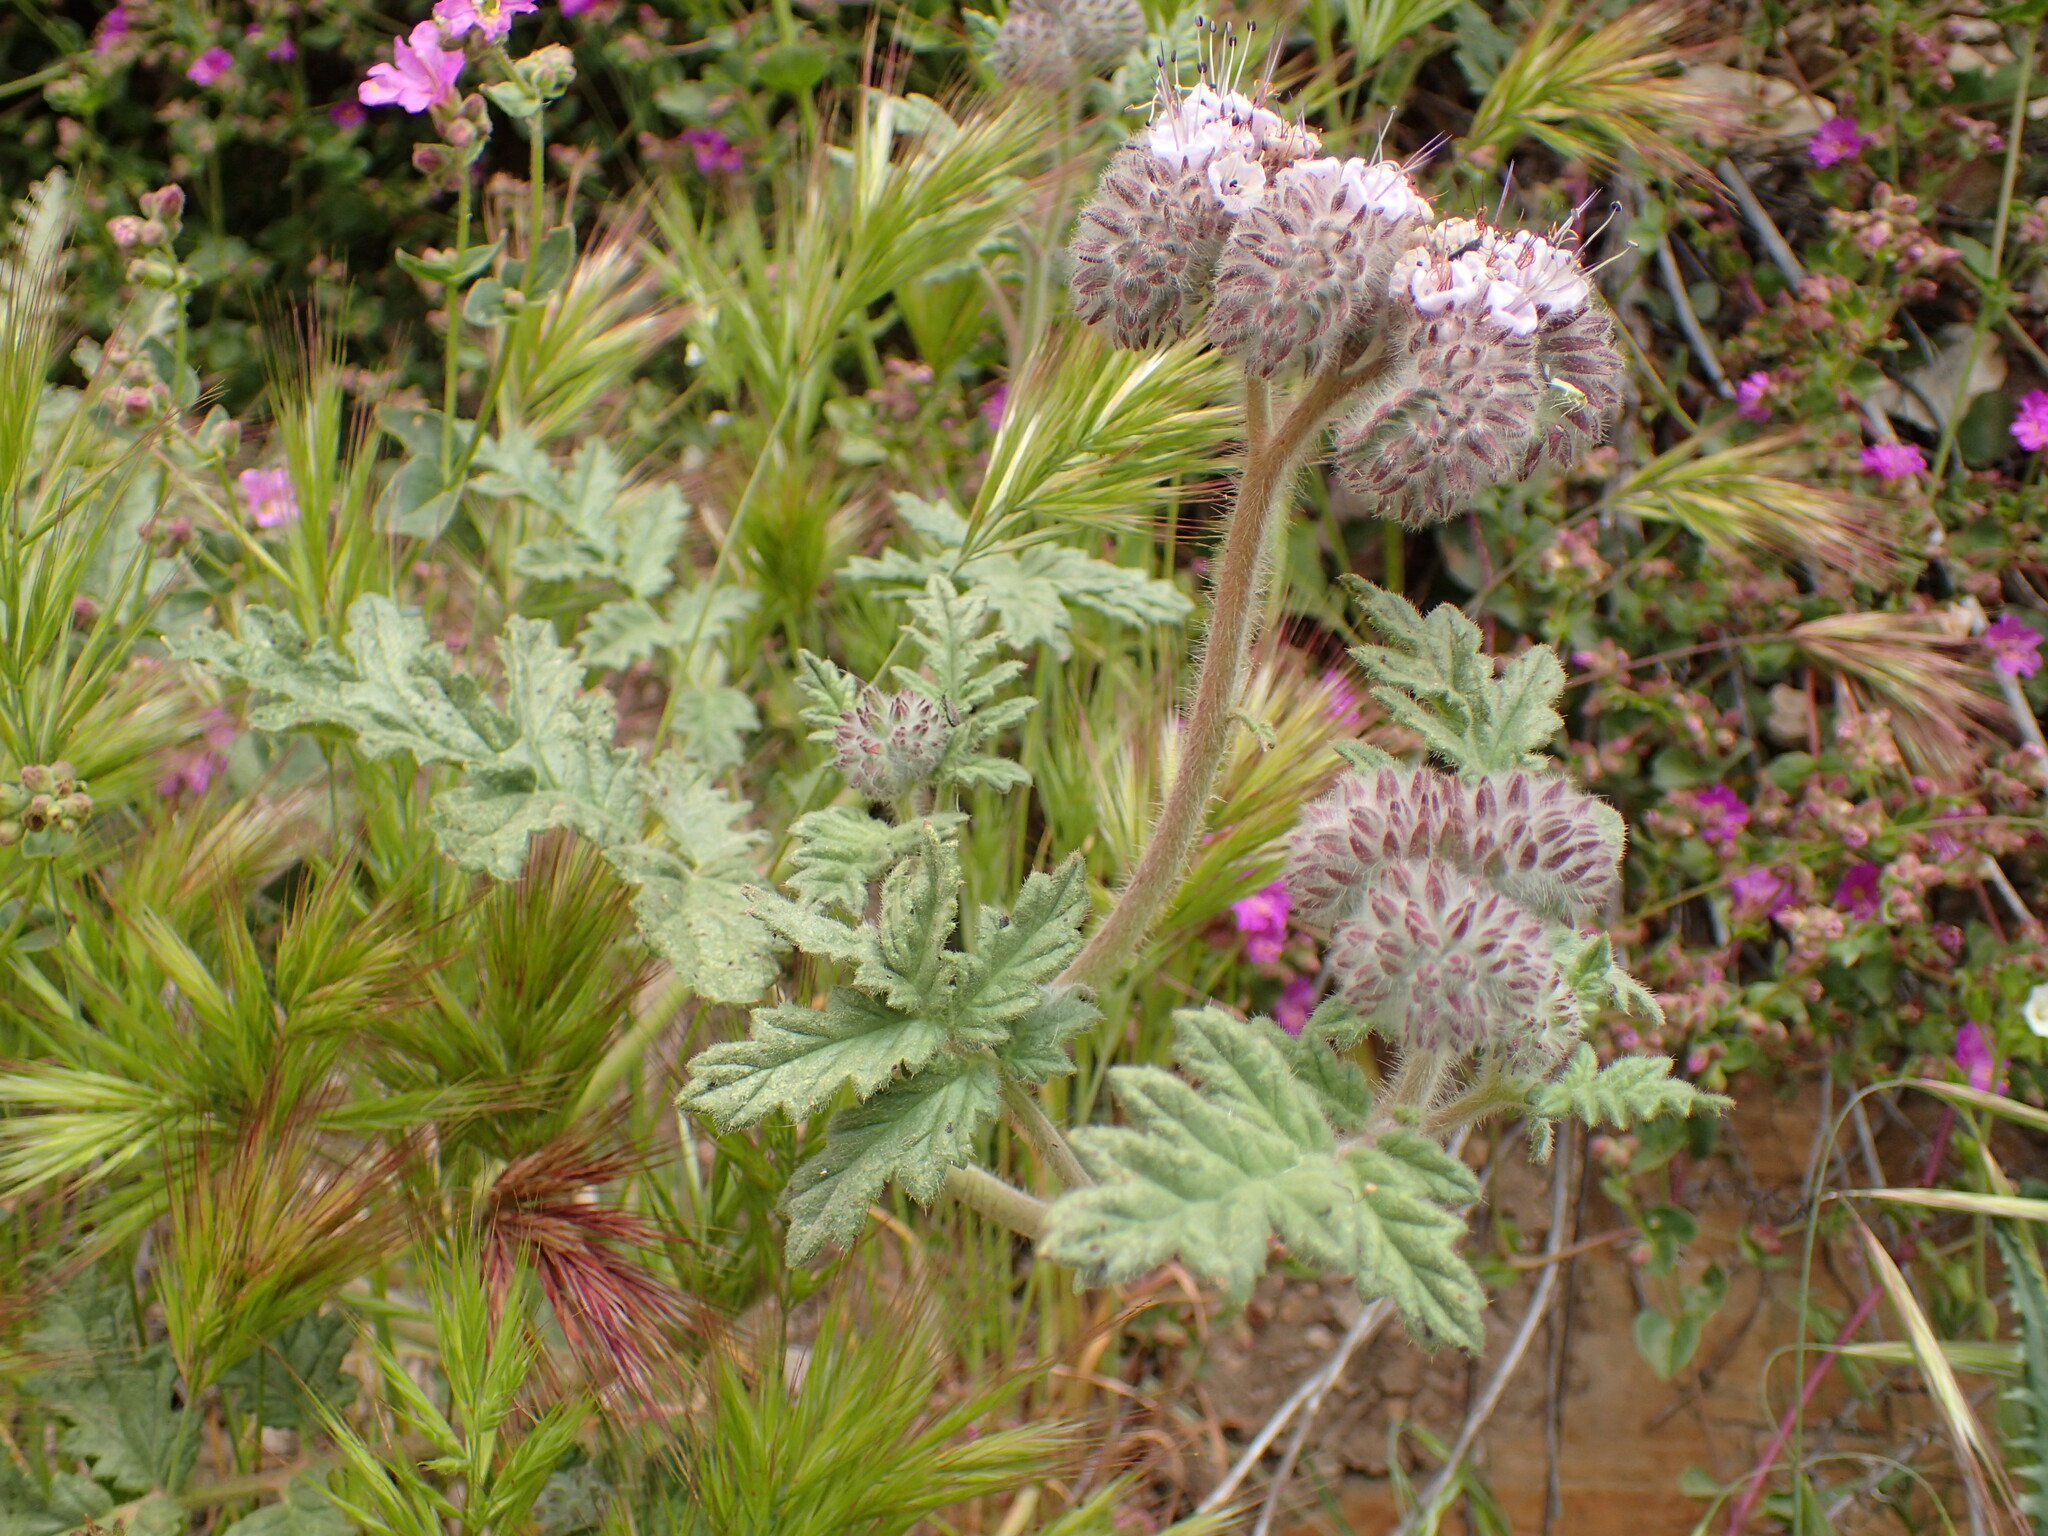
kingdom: Plantae
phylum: Tracheophyta
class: Magnoliopsida
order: Boraginales
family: Hydrophyllaceae
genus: Phacelia
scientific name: Phacelia hubbyi
